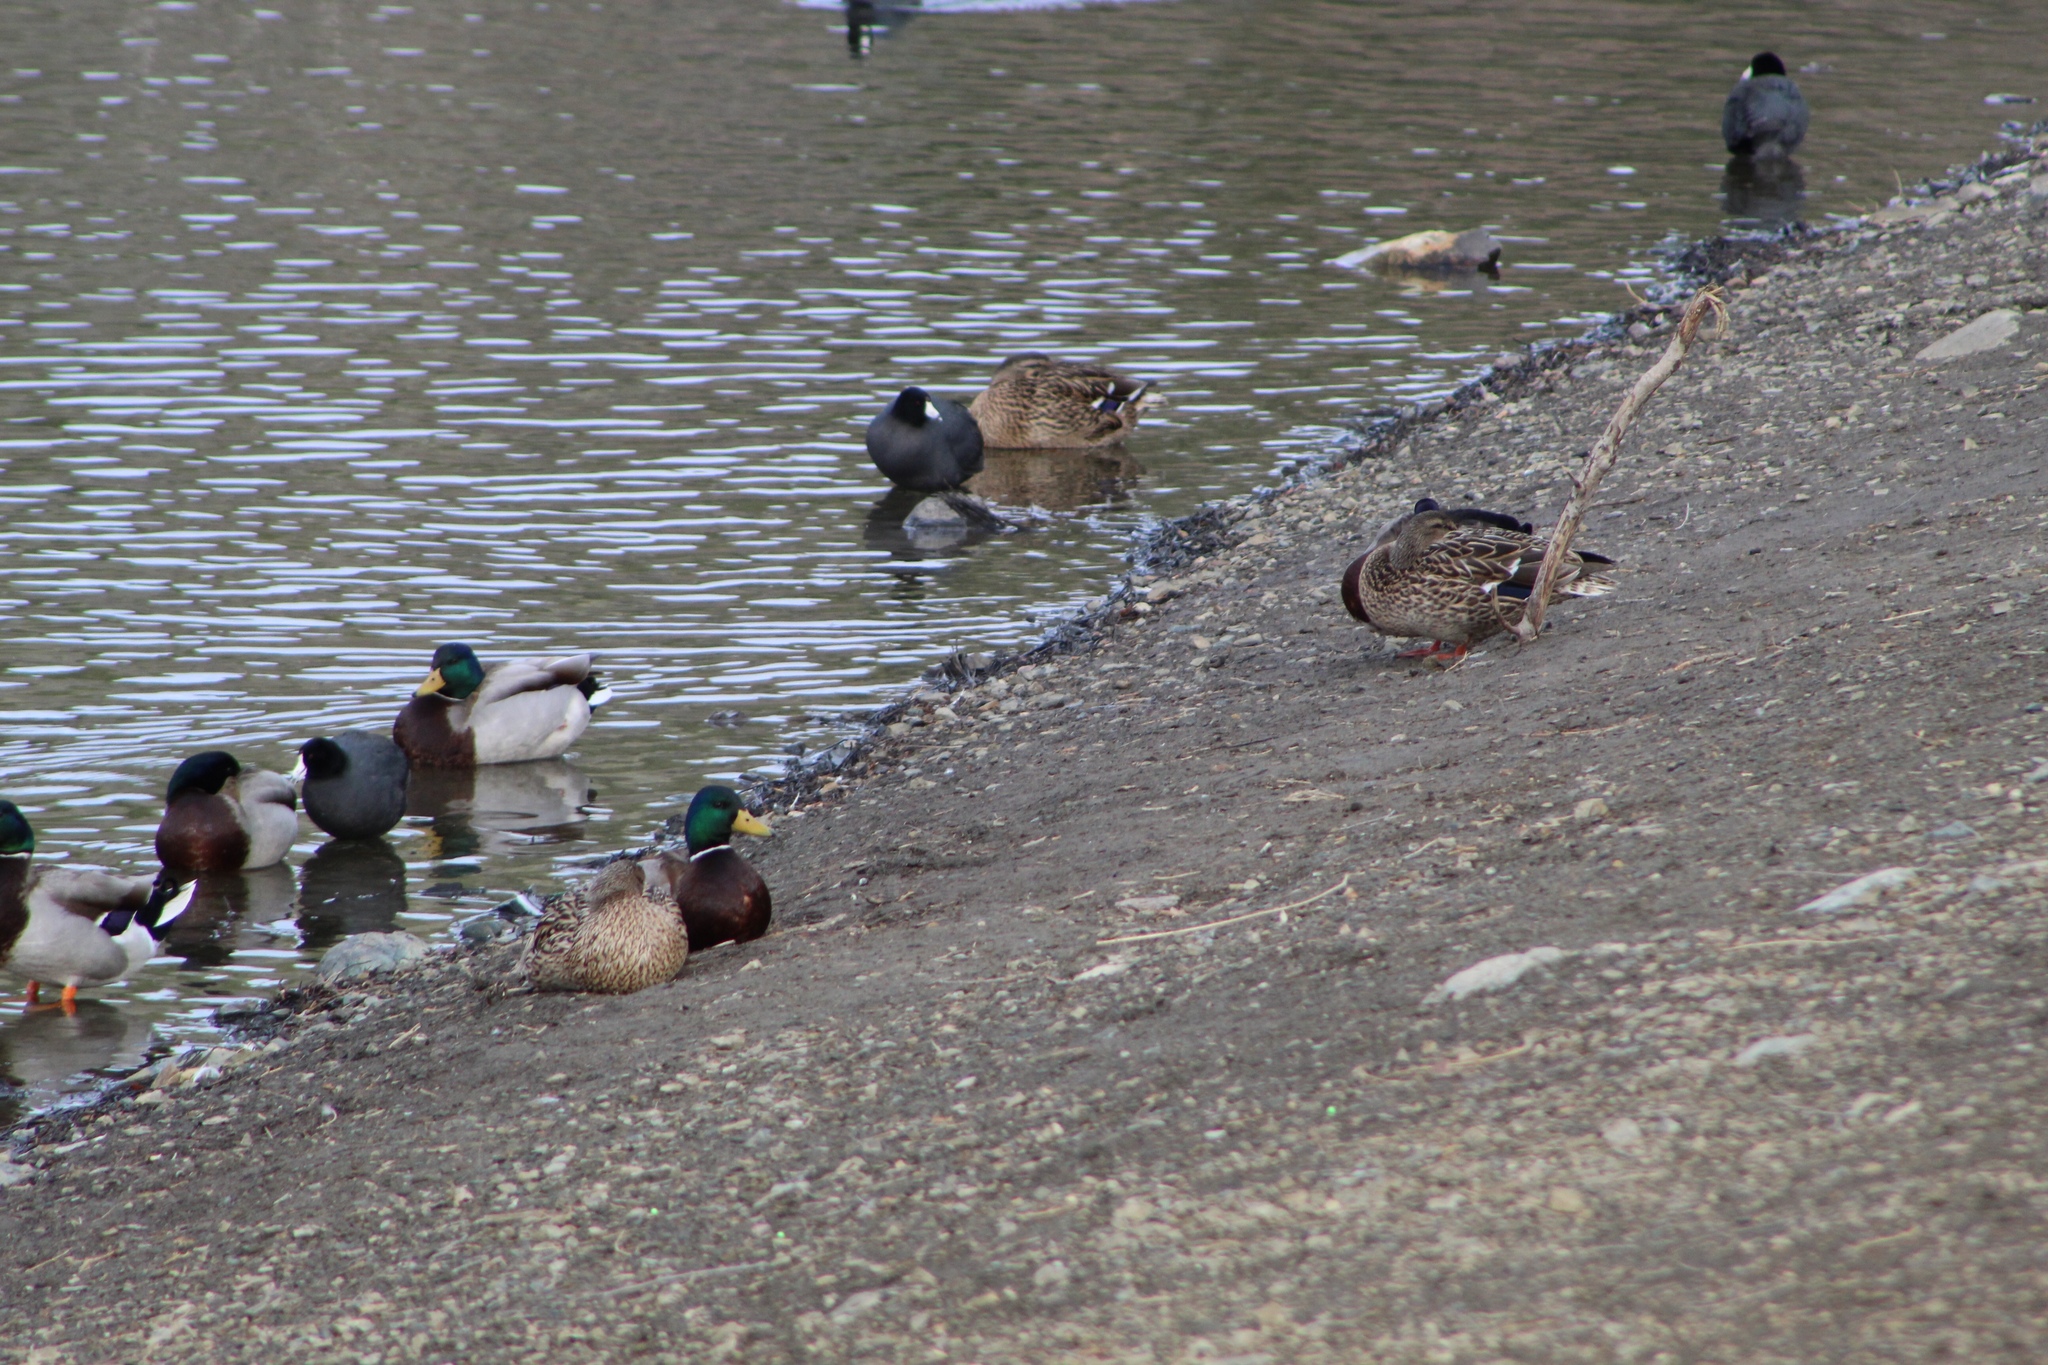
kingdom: Animalia
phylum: Chordata
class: Aves
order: Anseriformes
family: Anatidae
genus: Anas
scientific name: Anas platyrhynchos
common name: Mallard
